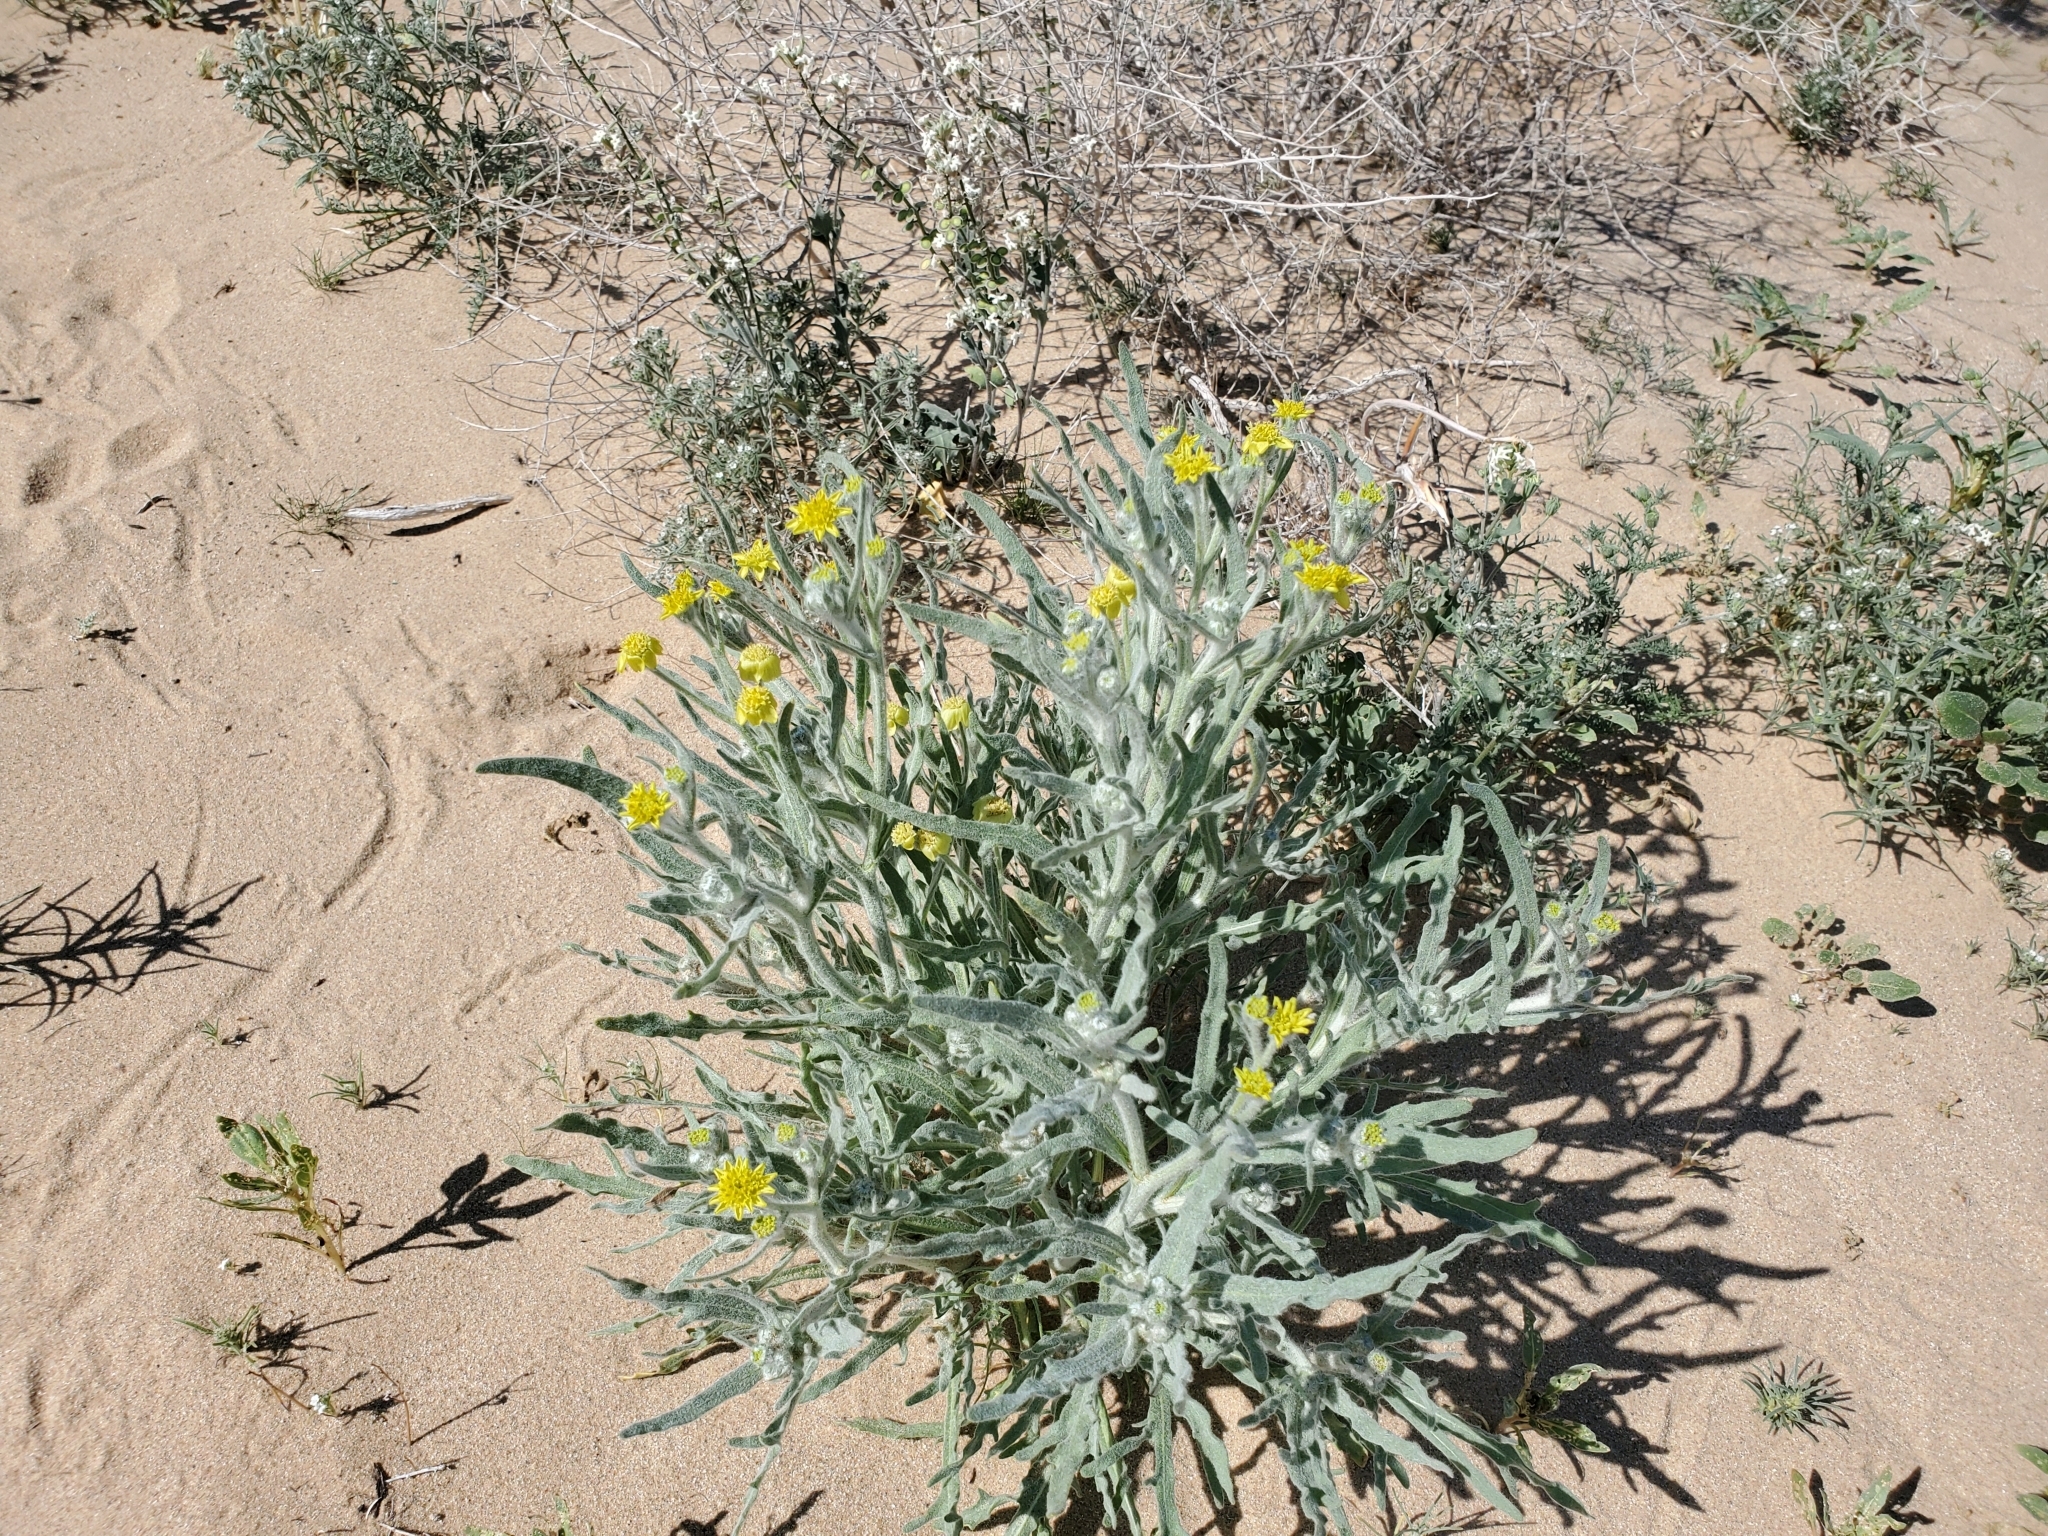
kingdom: Plantae
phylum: Tracheophyta
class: Magnoliopsida
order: Asterales
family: Asteraceae
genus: Baileya
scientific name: Baileya pauciradiata
